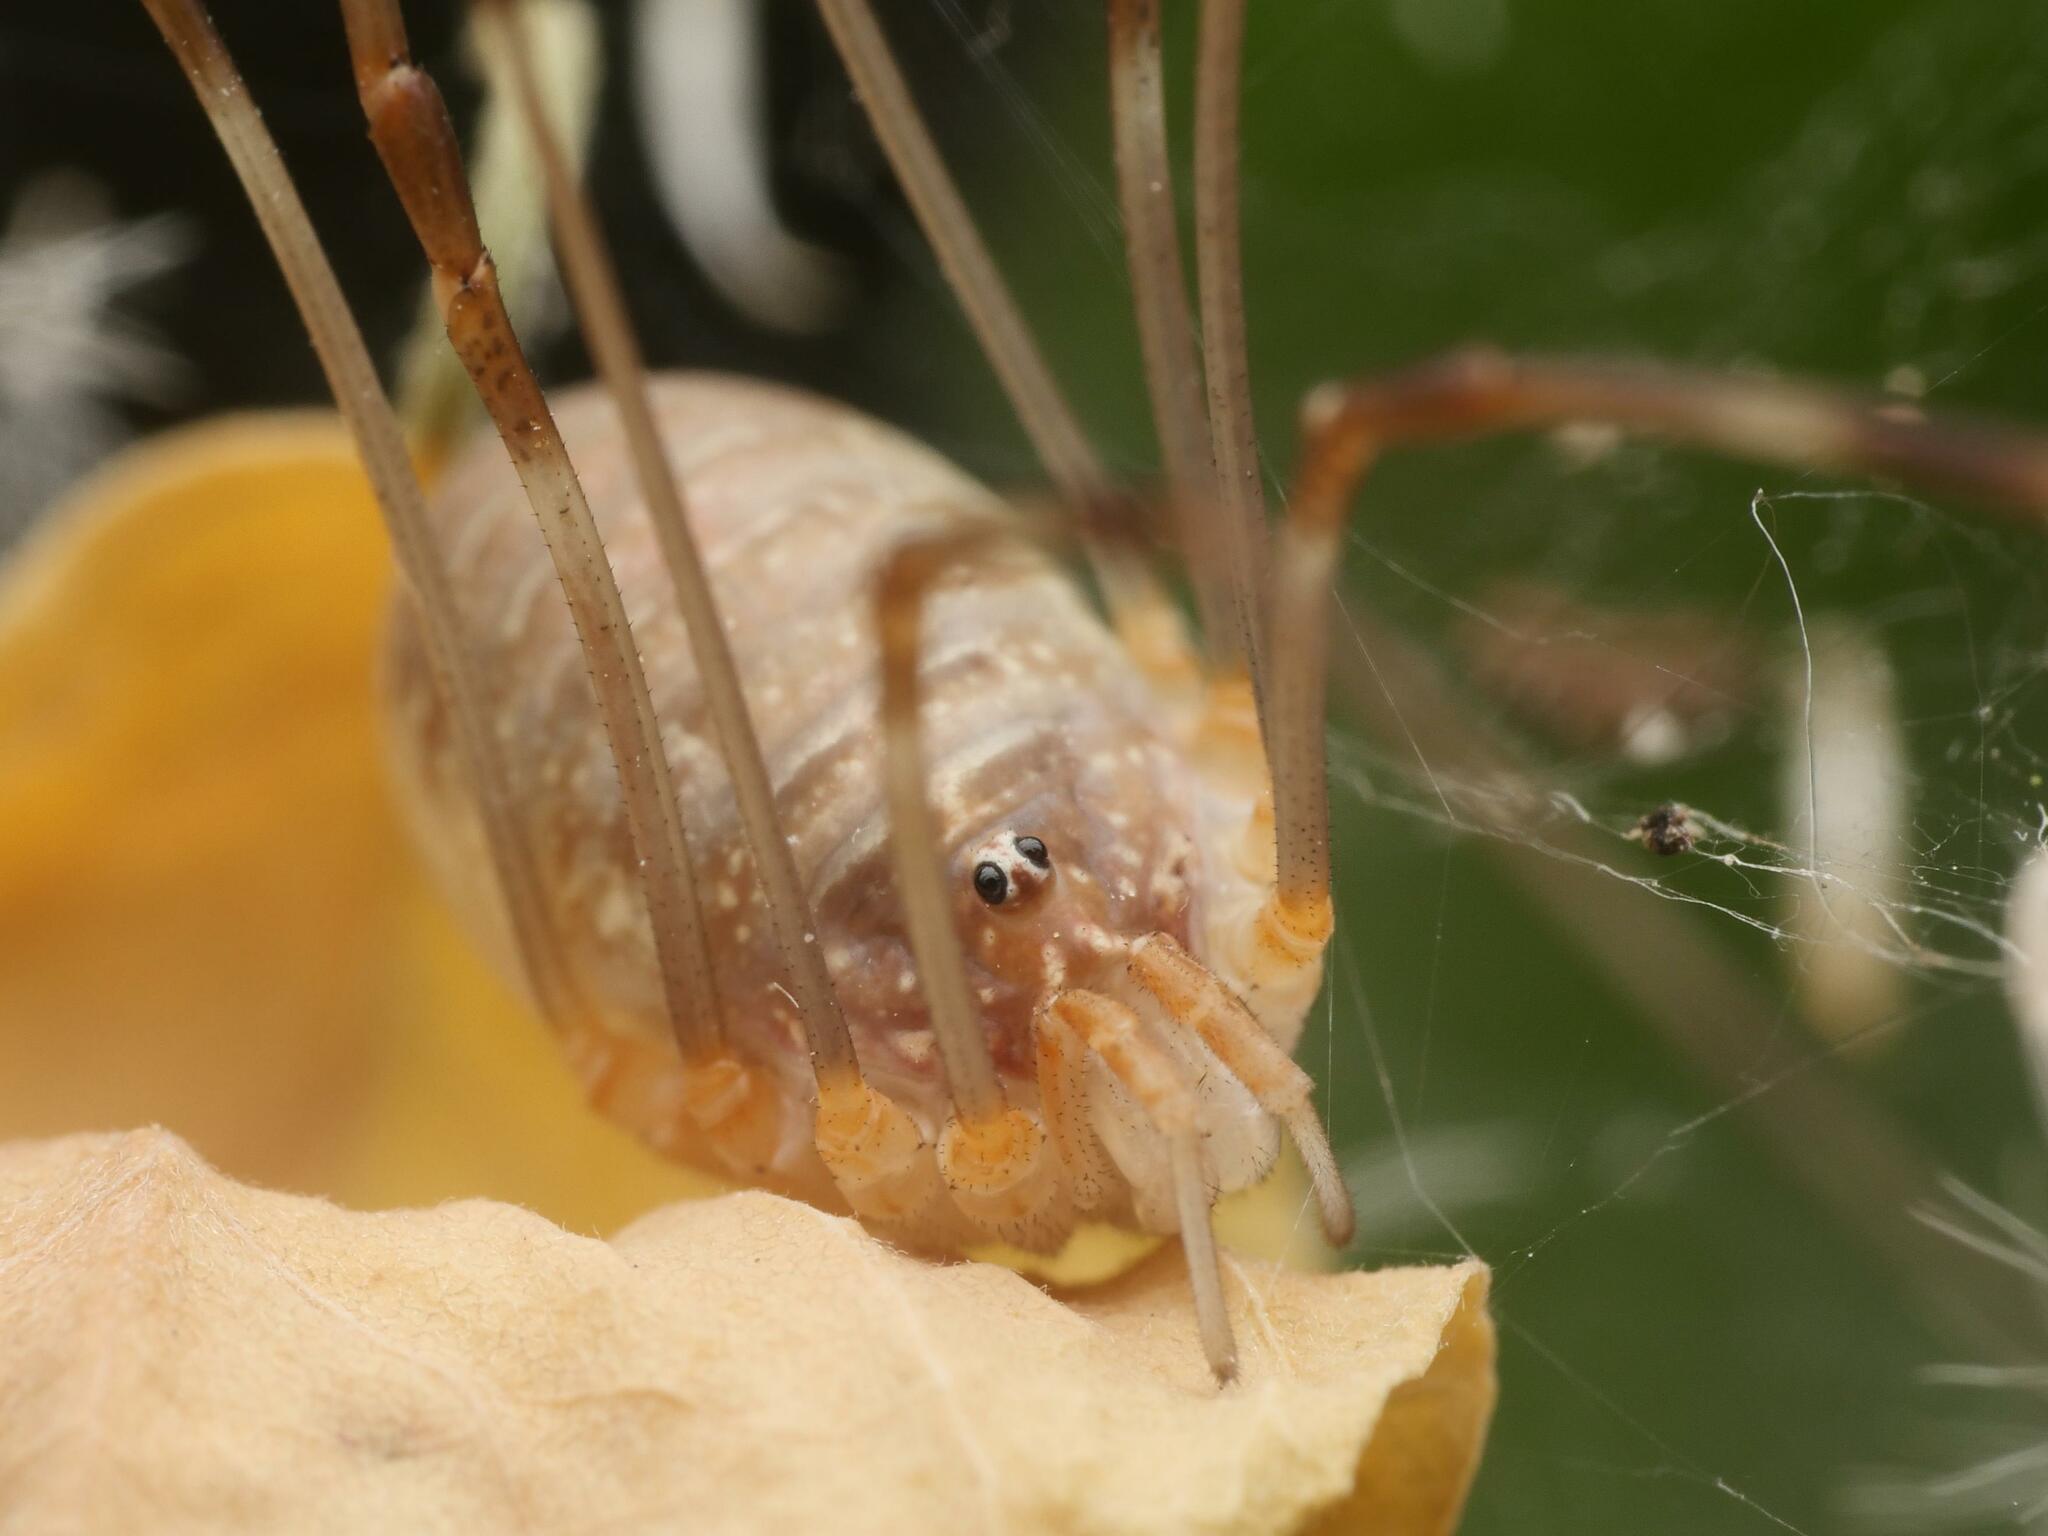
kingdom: Animalia
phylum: Arthropoda
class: Arachnida
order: Opiliones
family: Phalangiidae
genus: Opilio
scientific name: Opilio canestrinii
